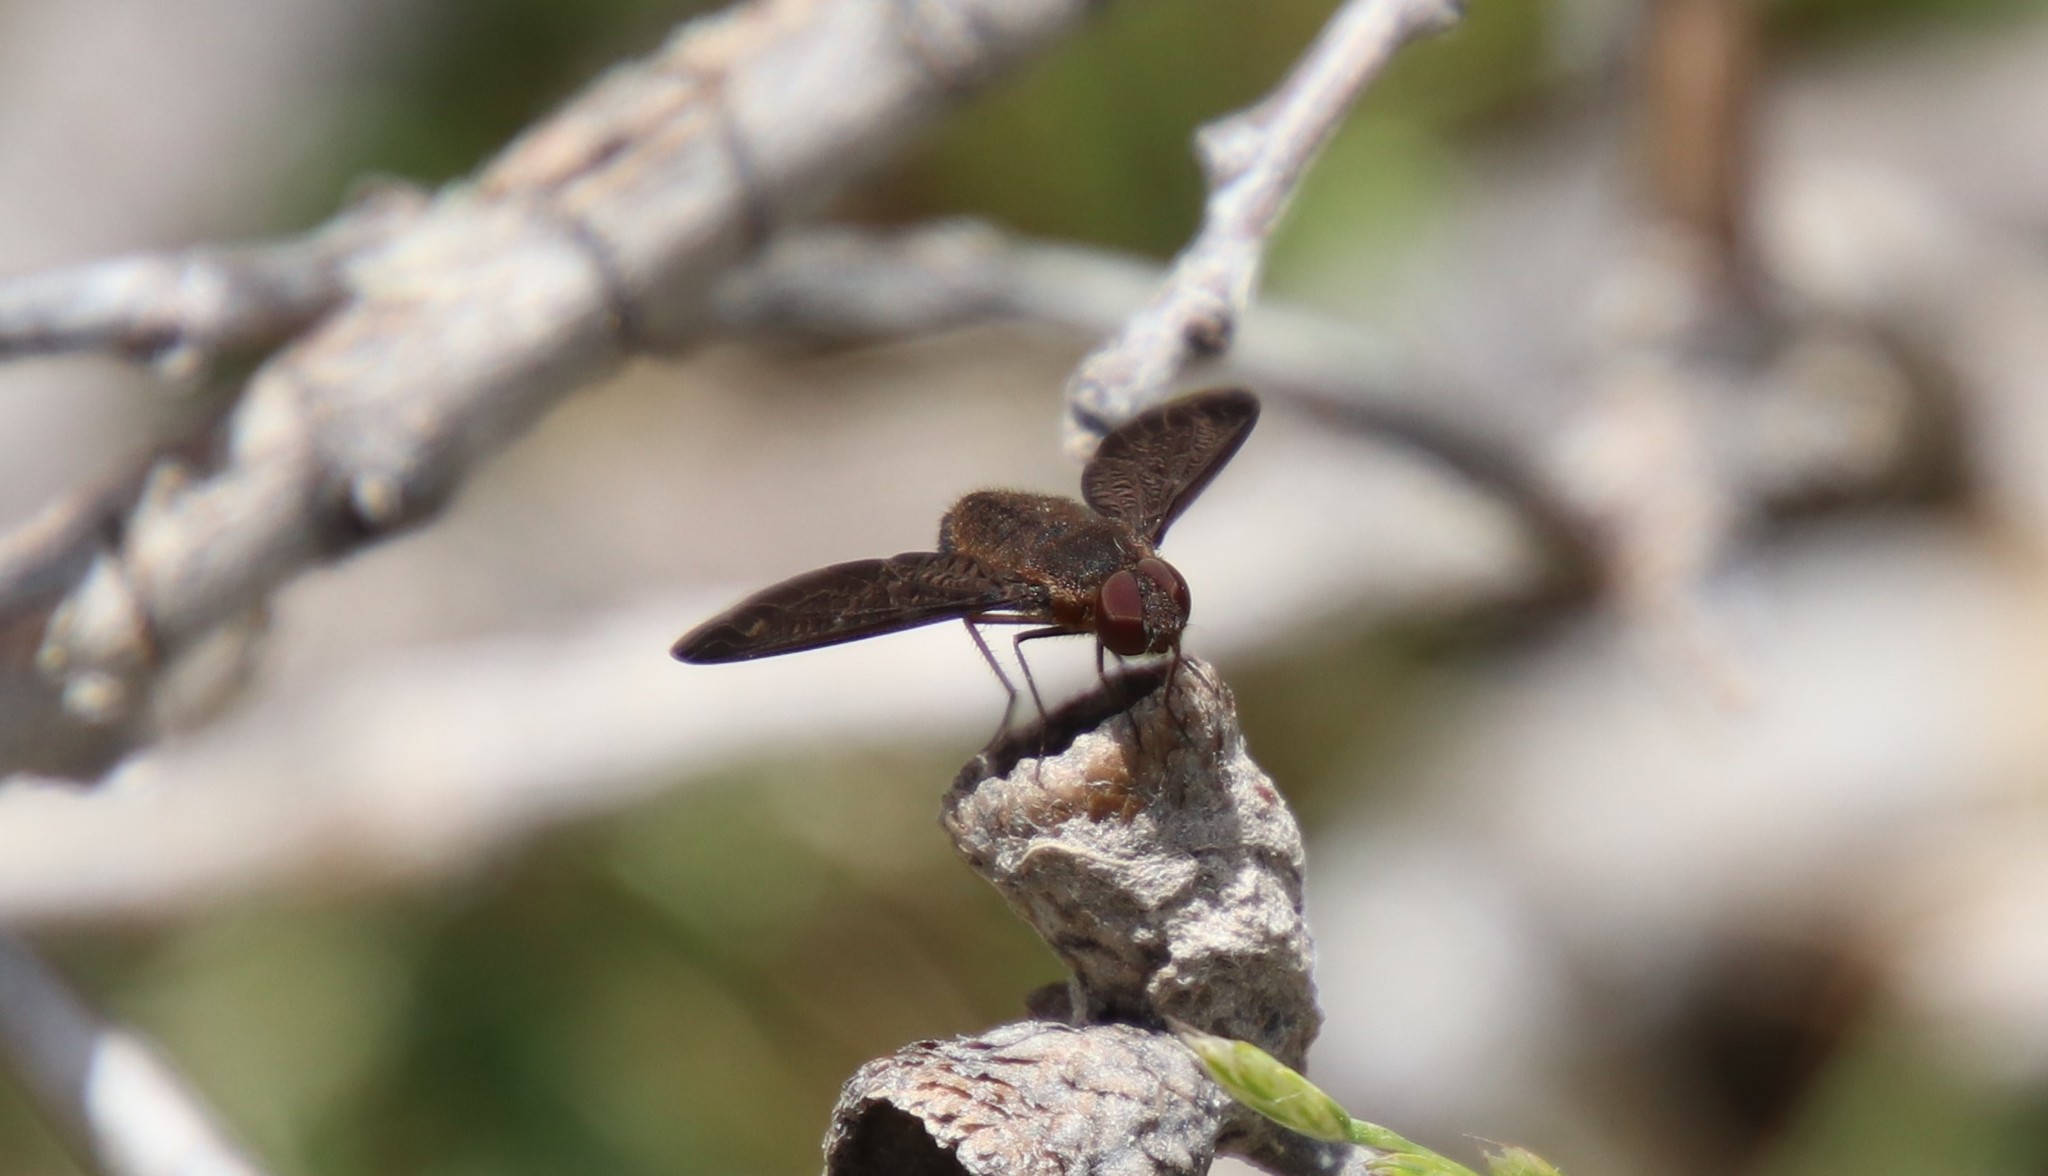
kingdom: Animalia
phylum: Arthropoda
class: Insecta
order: Diptera
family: Bombyliidae
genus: Hemipenthes
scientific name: Hemipenthes pullatus
